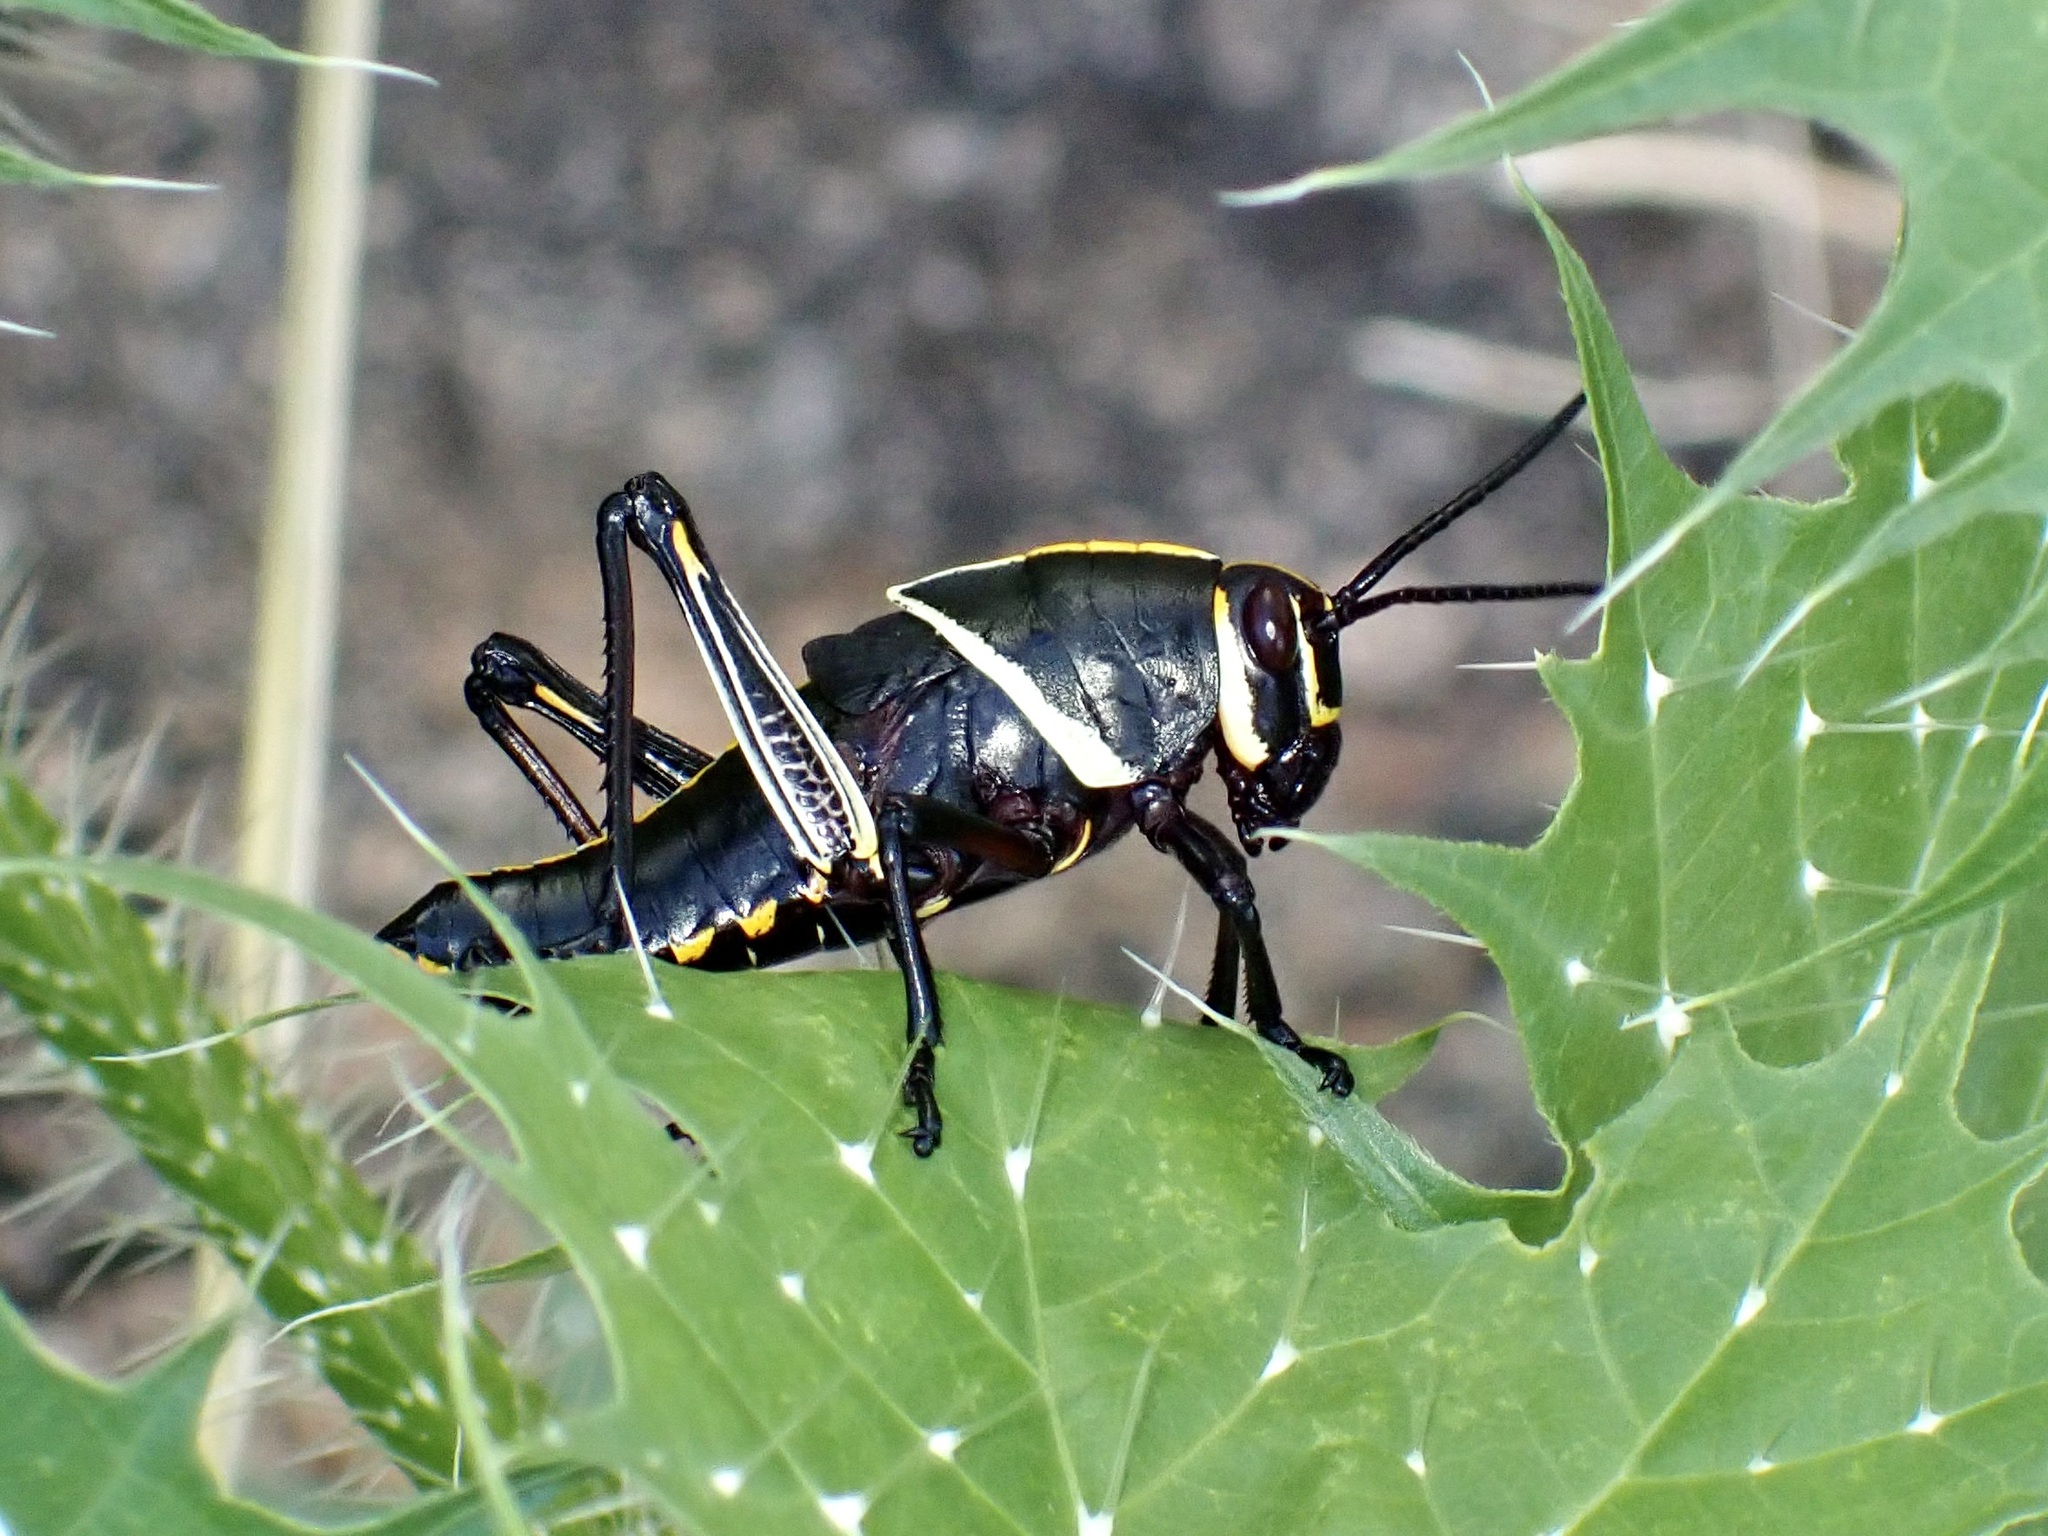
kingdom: Animalia
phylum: Arthropoda
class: Insecta
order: Orthoptera
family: Romaleidae
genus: Romalea
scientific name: Romalea
